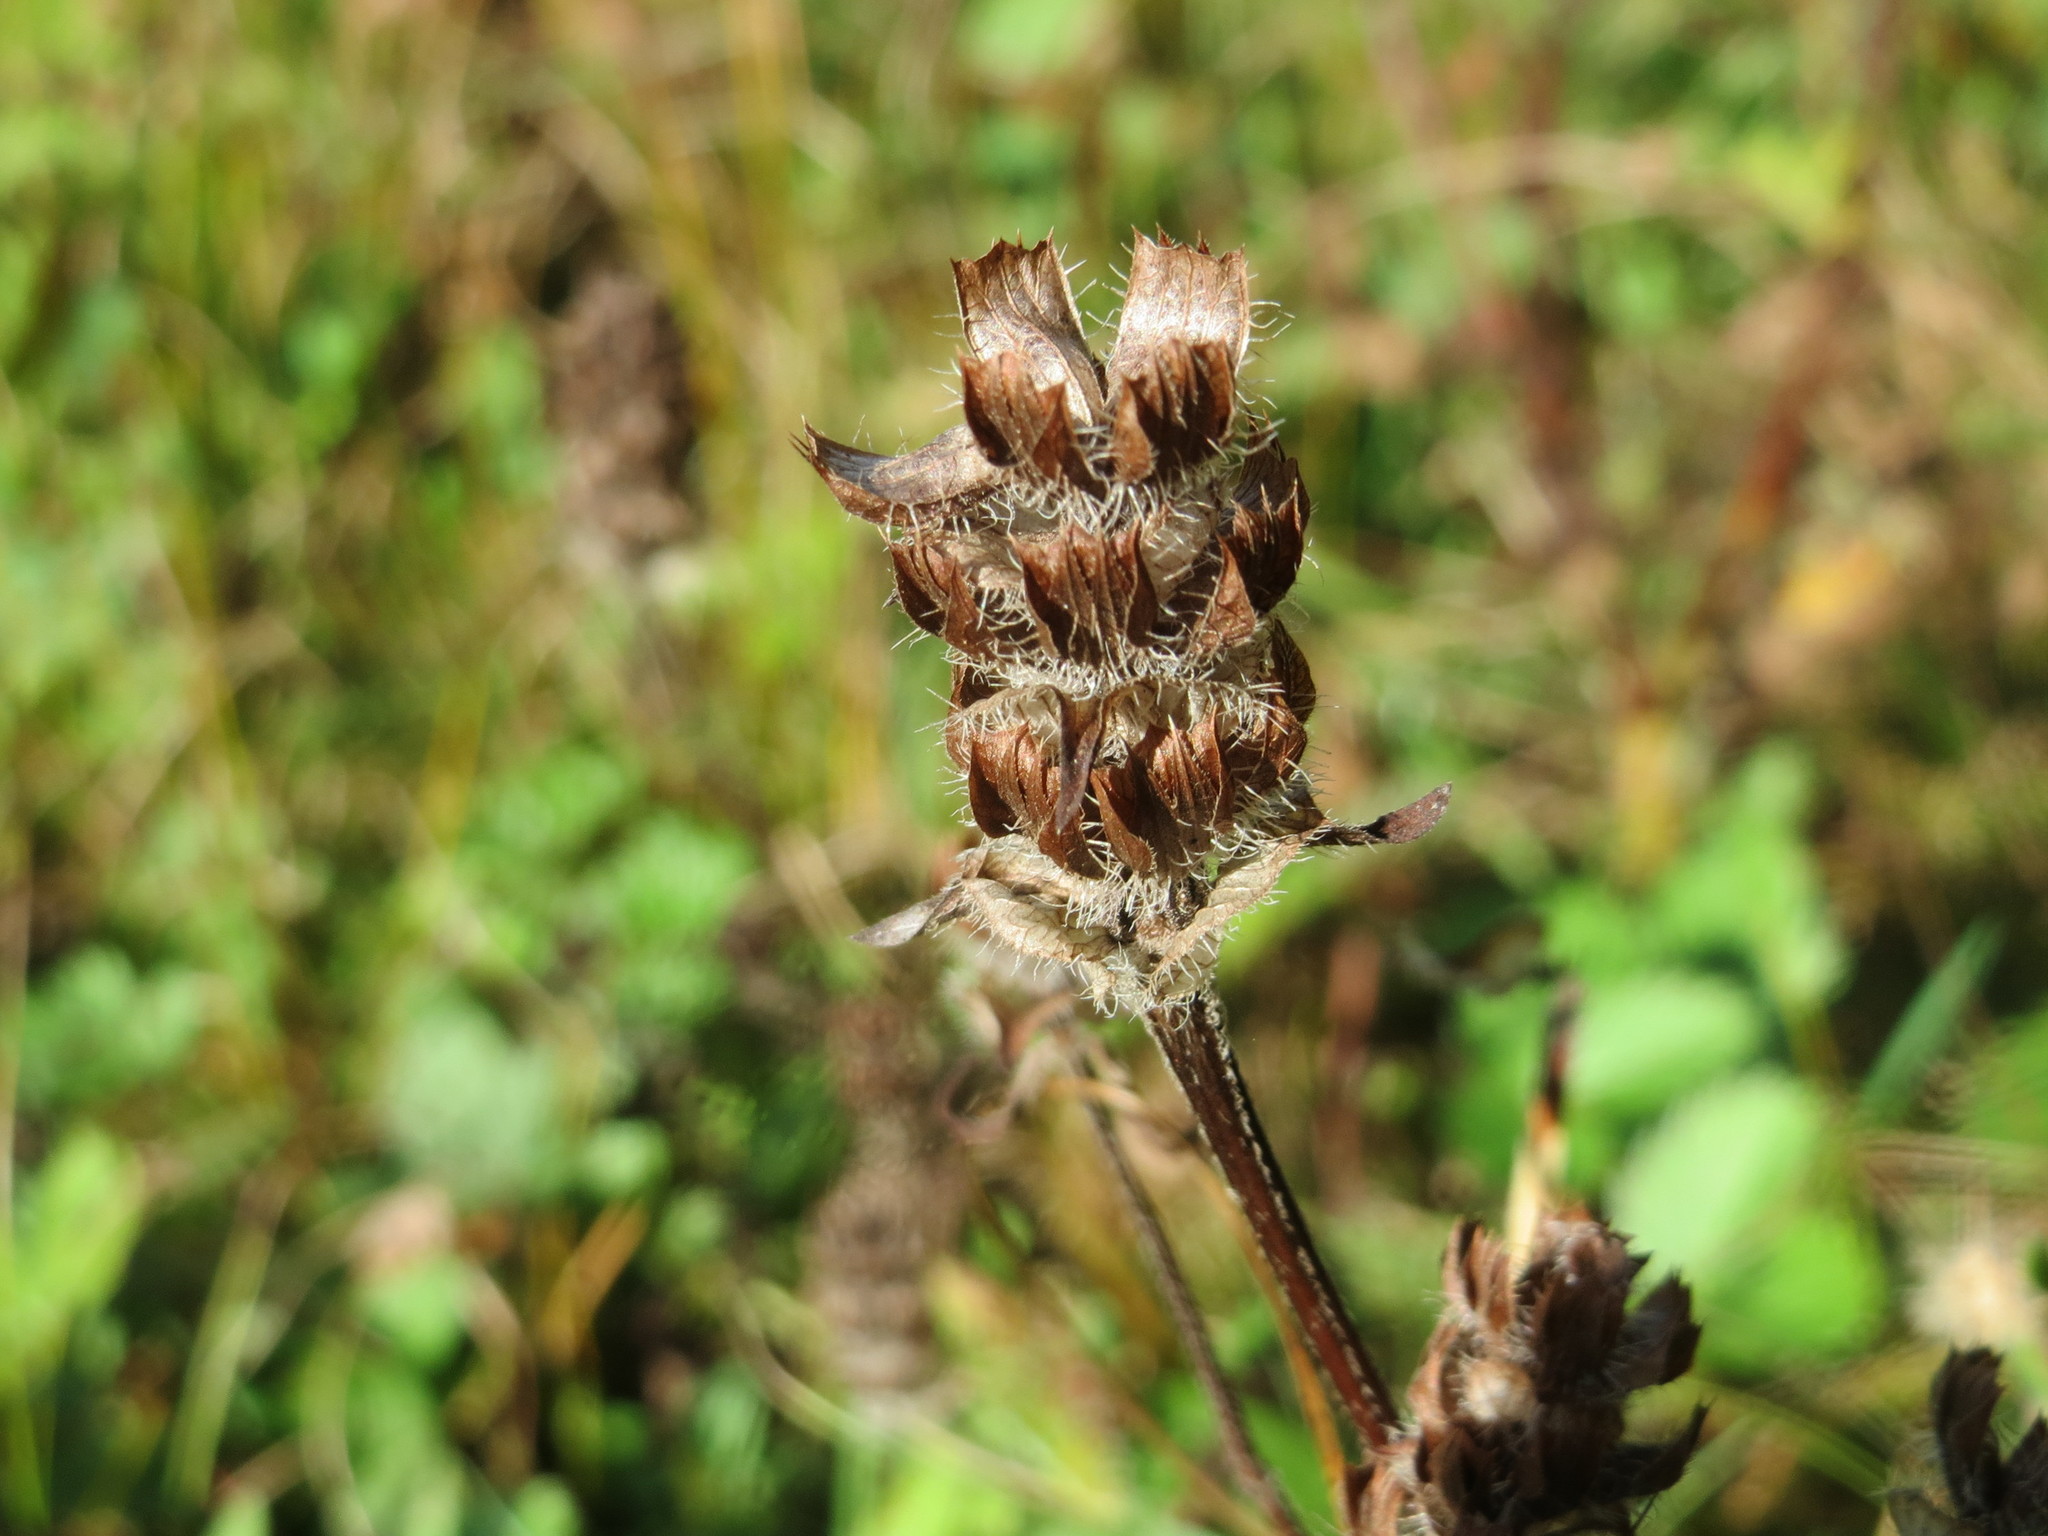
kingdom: Plantae
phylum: Tracheophyta
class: Magnoliopsida
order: Lamiales
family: Lamiaceae
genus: Prunella
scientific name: Prunella vulgaris
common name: Heal-all
